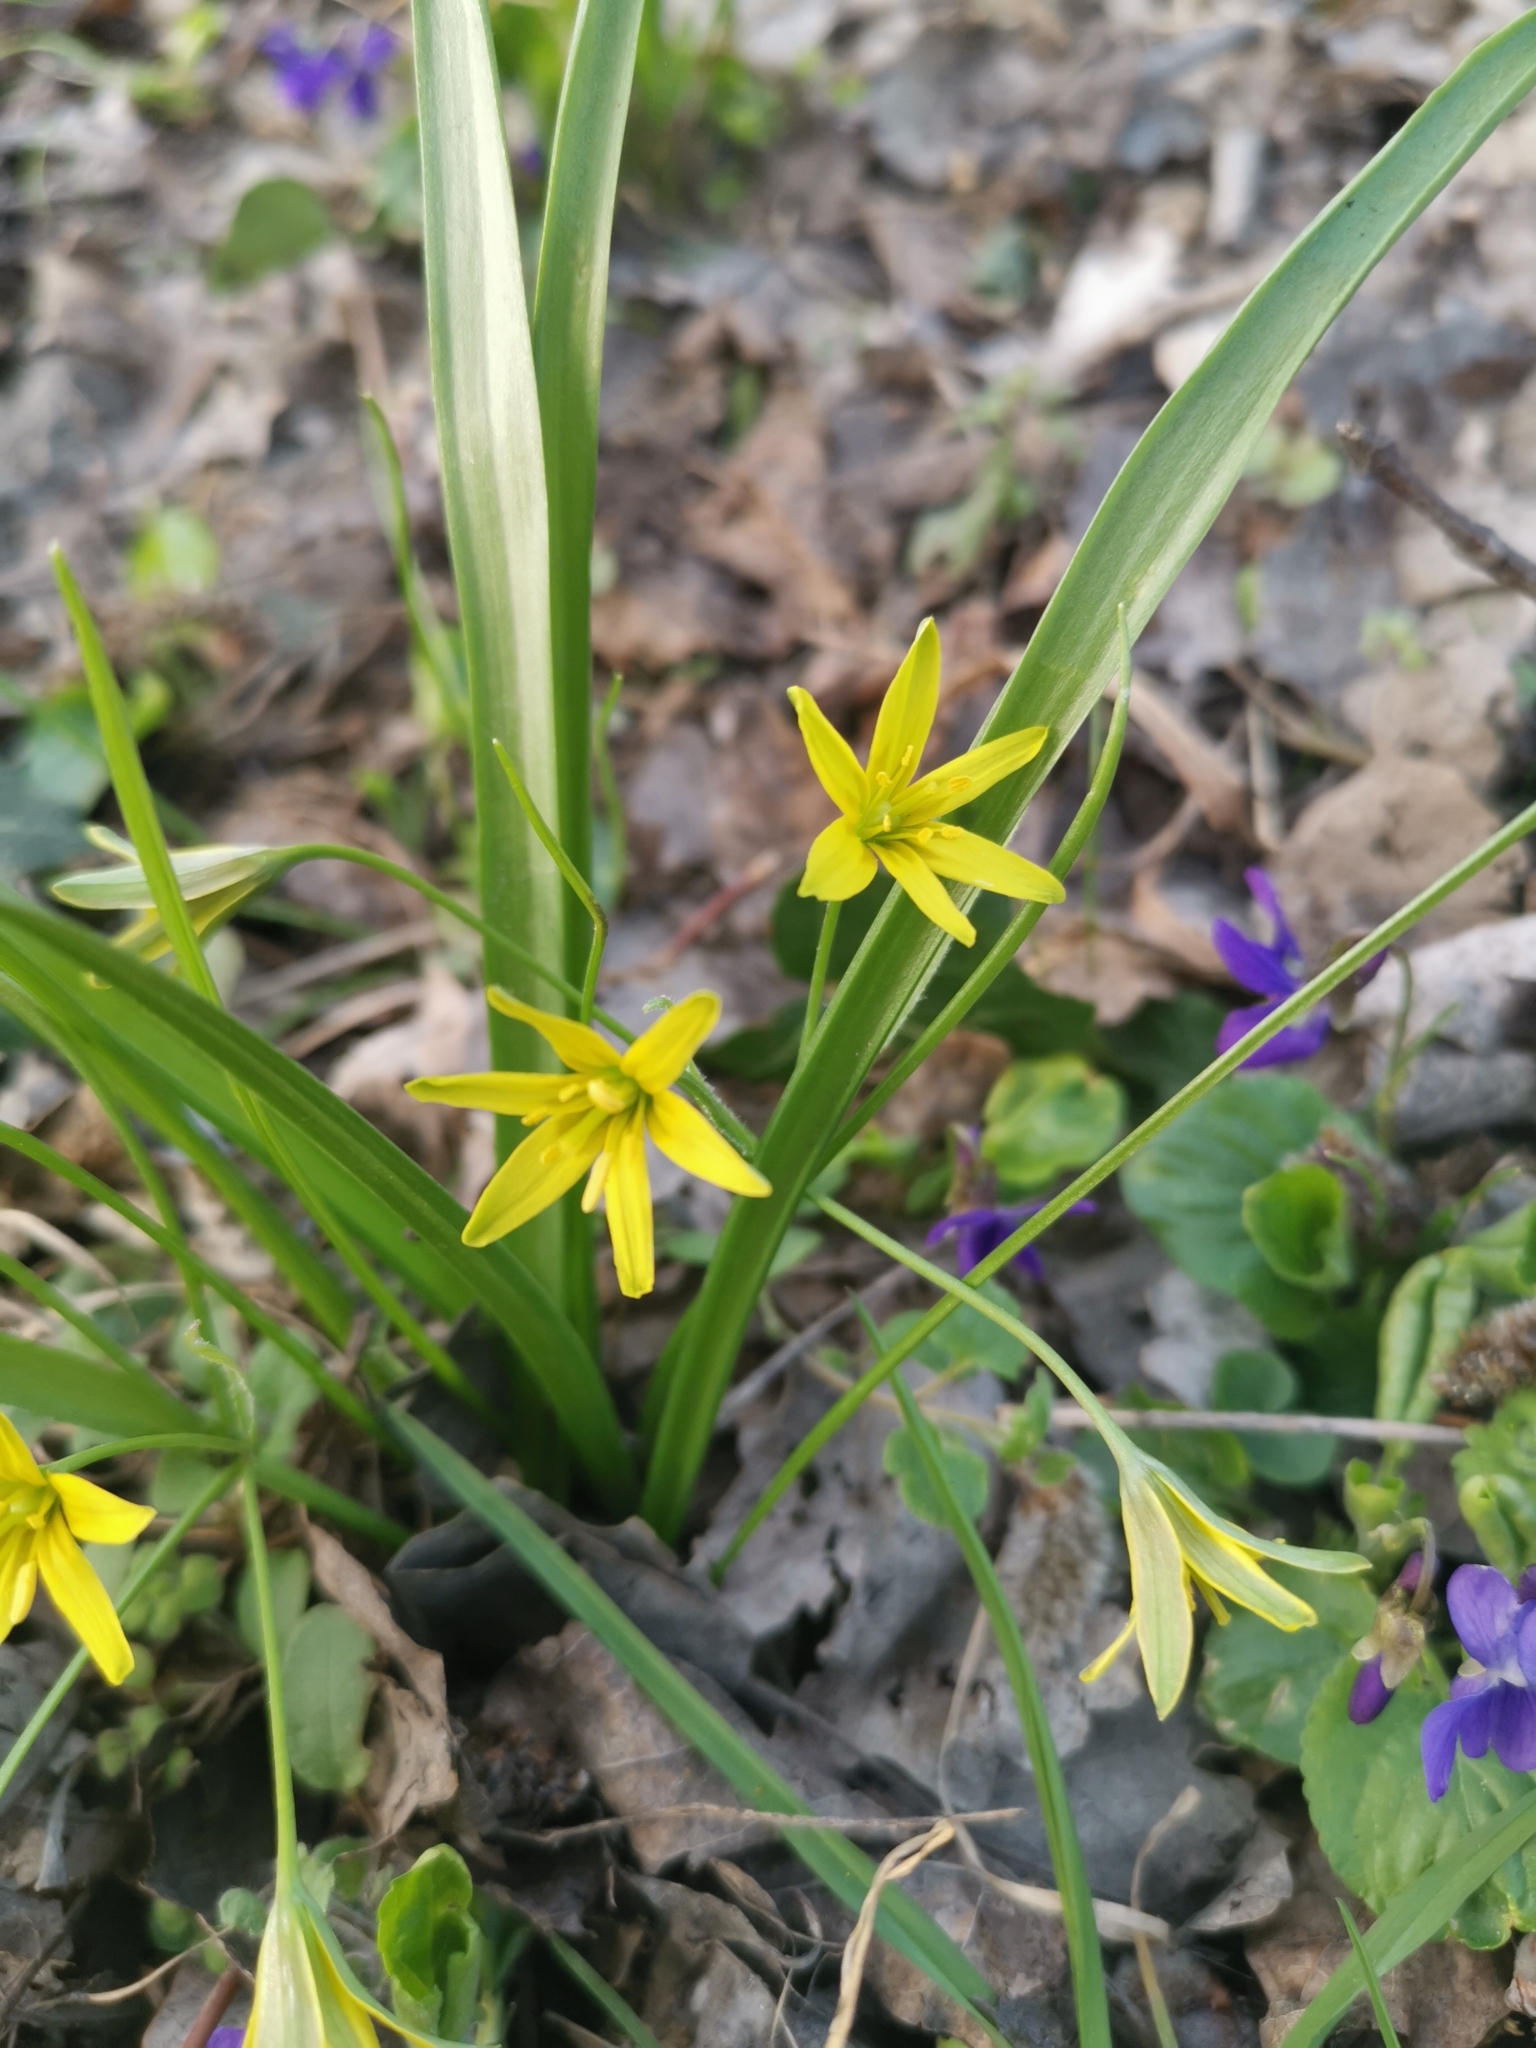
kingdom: Plantae
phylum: Tracheophyta
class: Liliopsida
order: Liliales
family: Liliaceae
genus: Gagea
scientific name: Gagea lutea
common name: Yellow star-of-bethlehem
